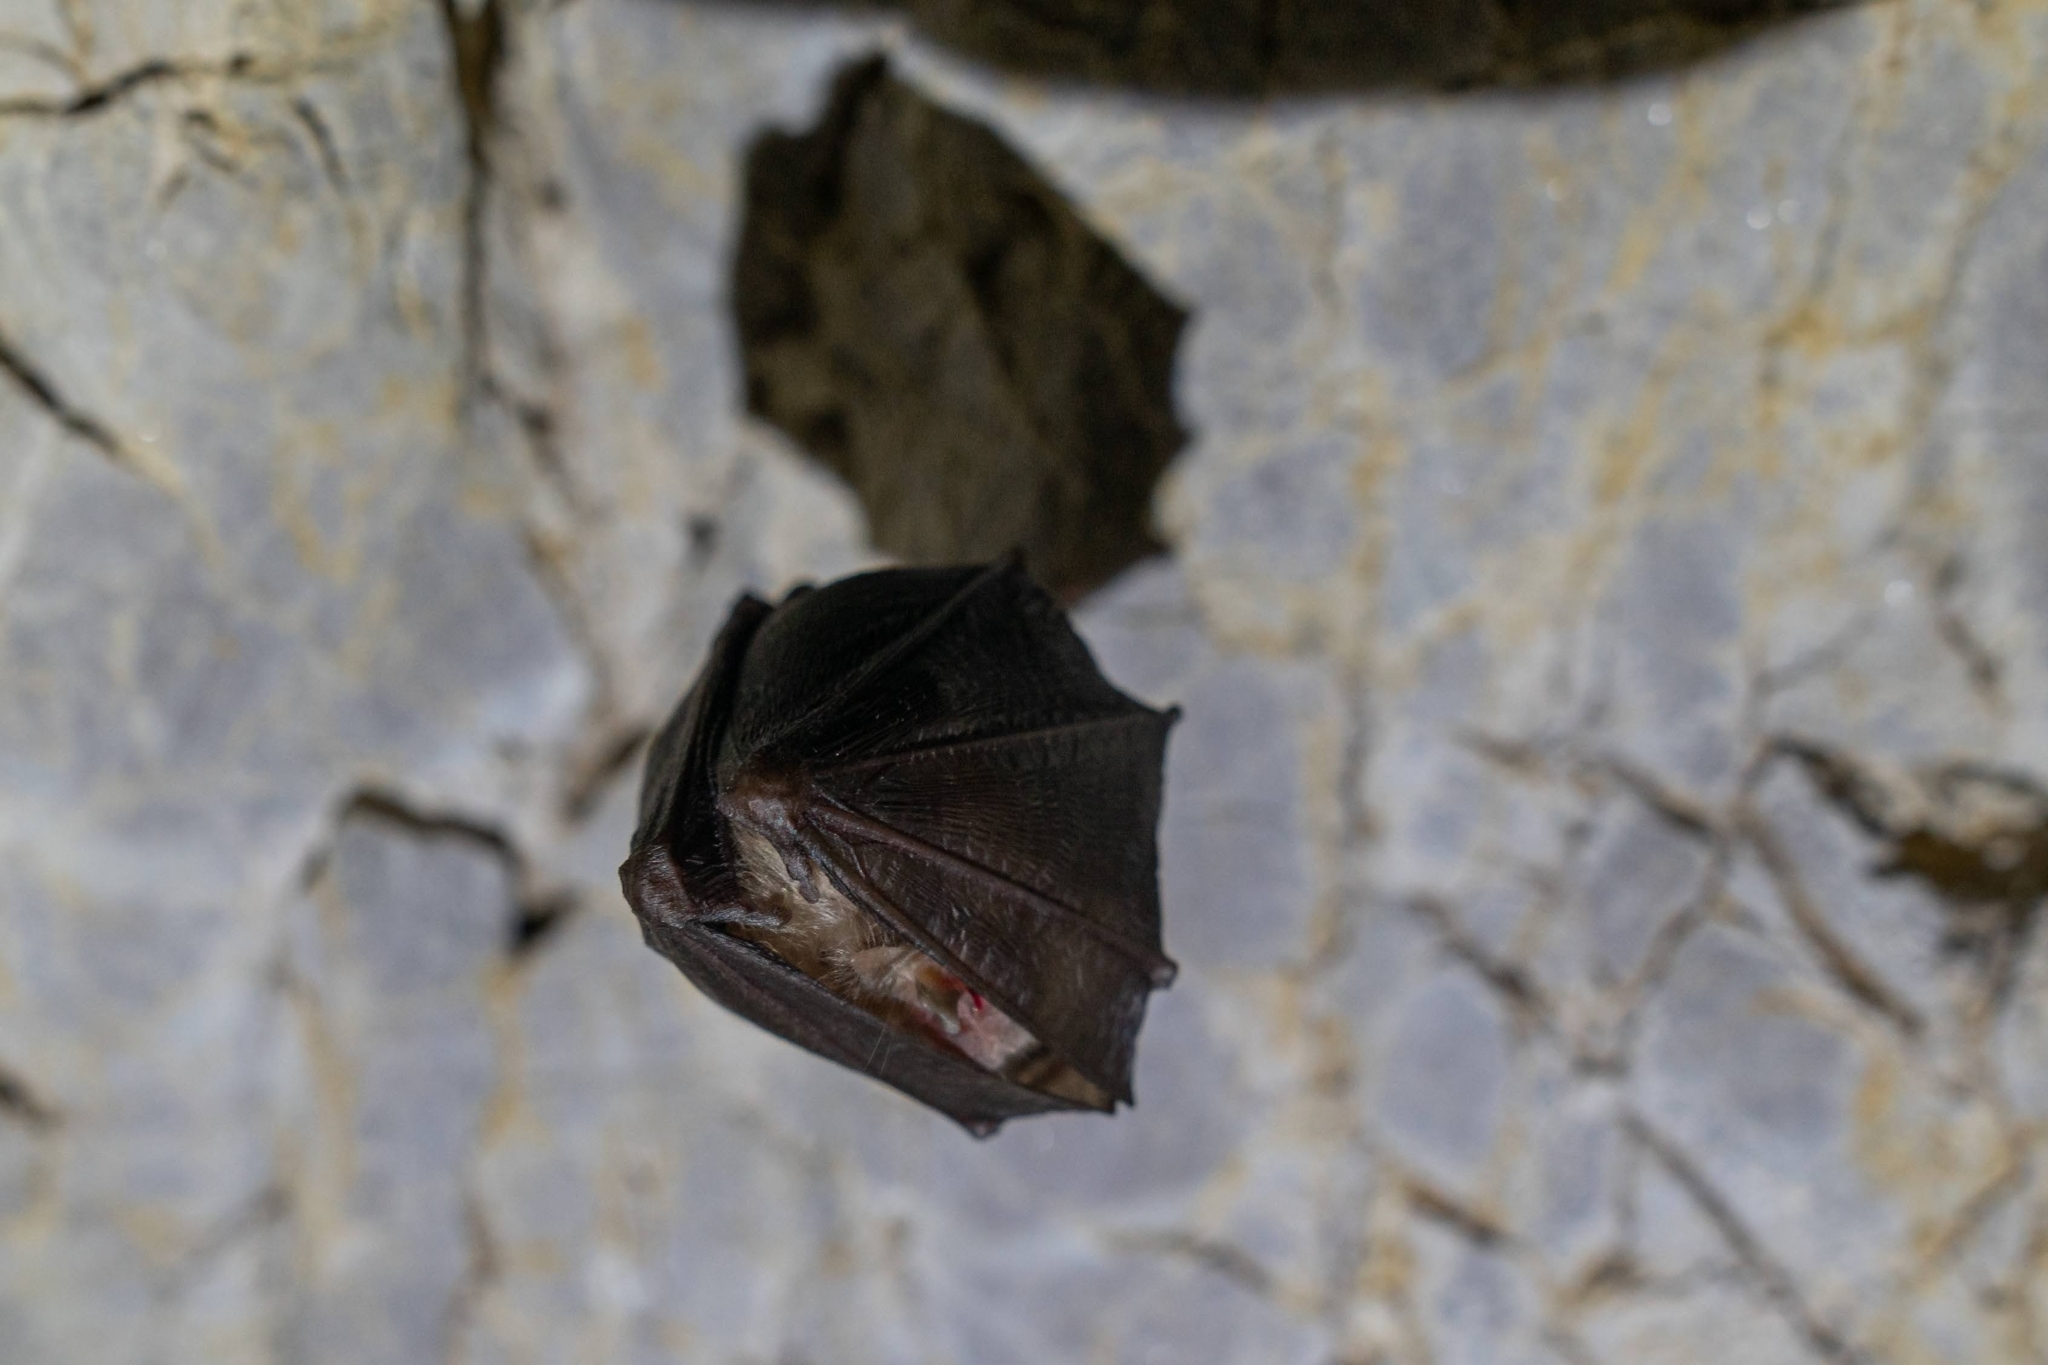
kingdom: Animalia
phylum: Chordata
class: Mammalia
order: Chiroptera
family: Rhinolophidae
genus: Rhinolophus
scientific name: Rhinolophus ferrumequinum
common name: Greater horseshoe bat
